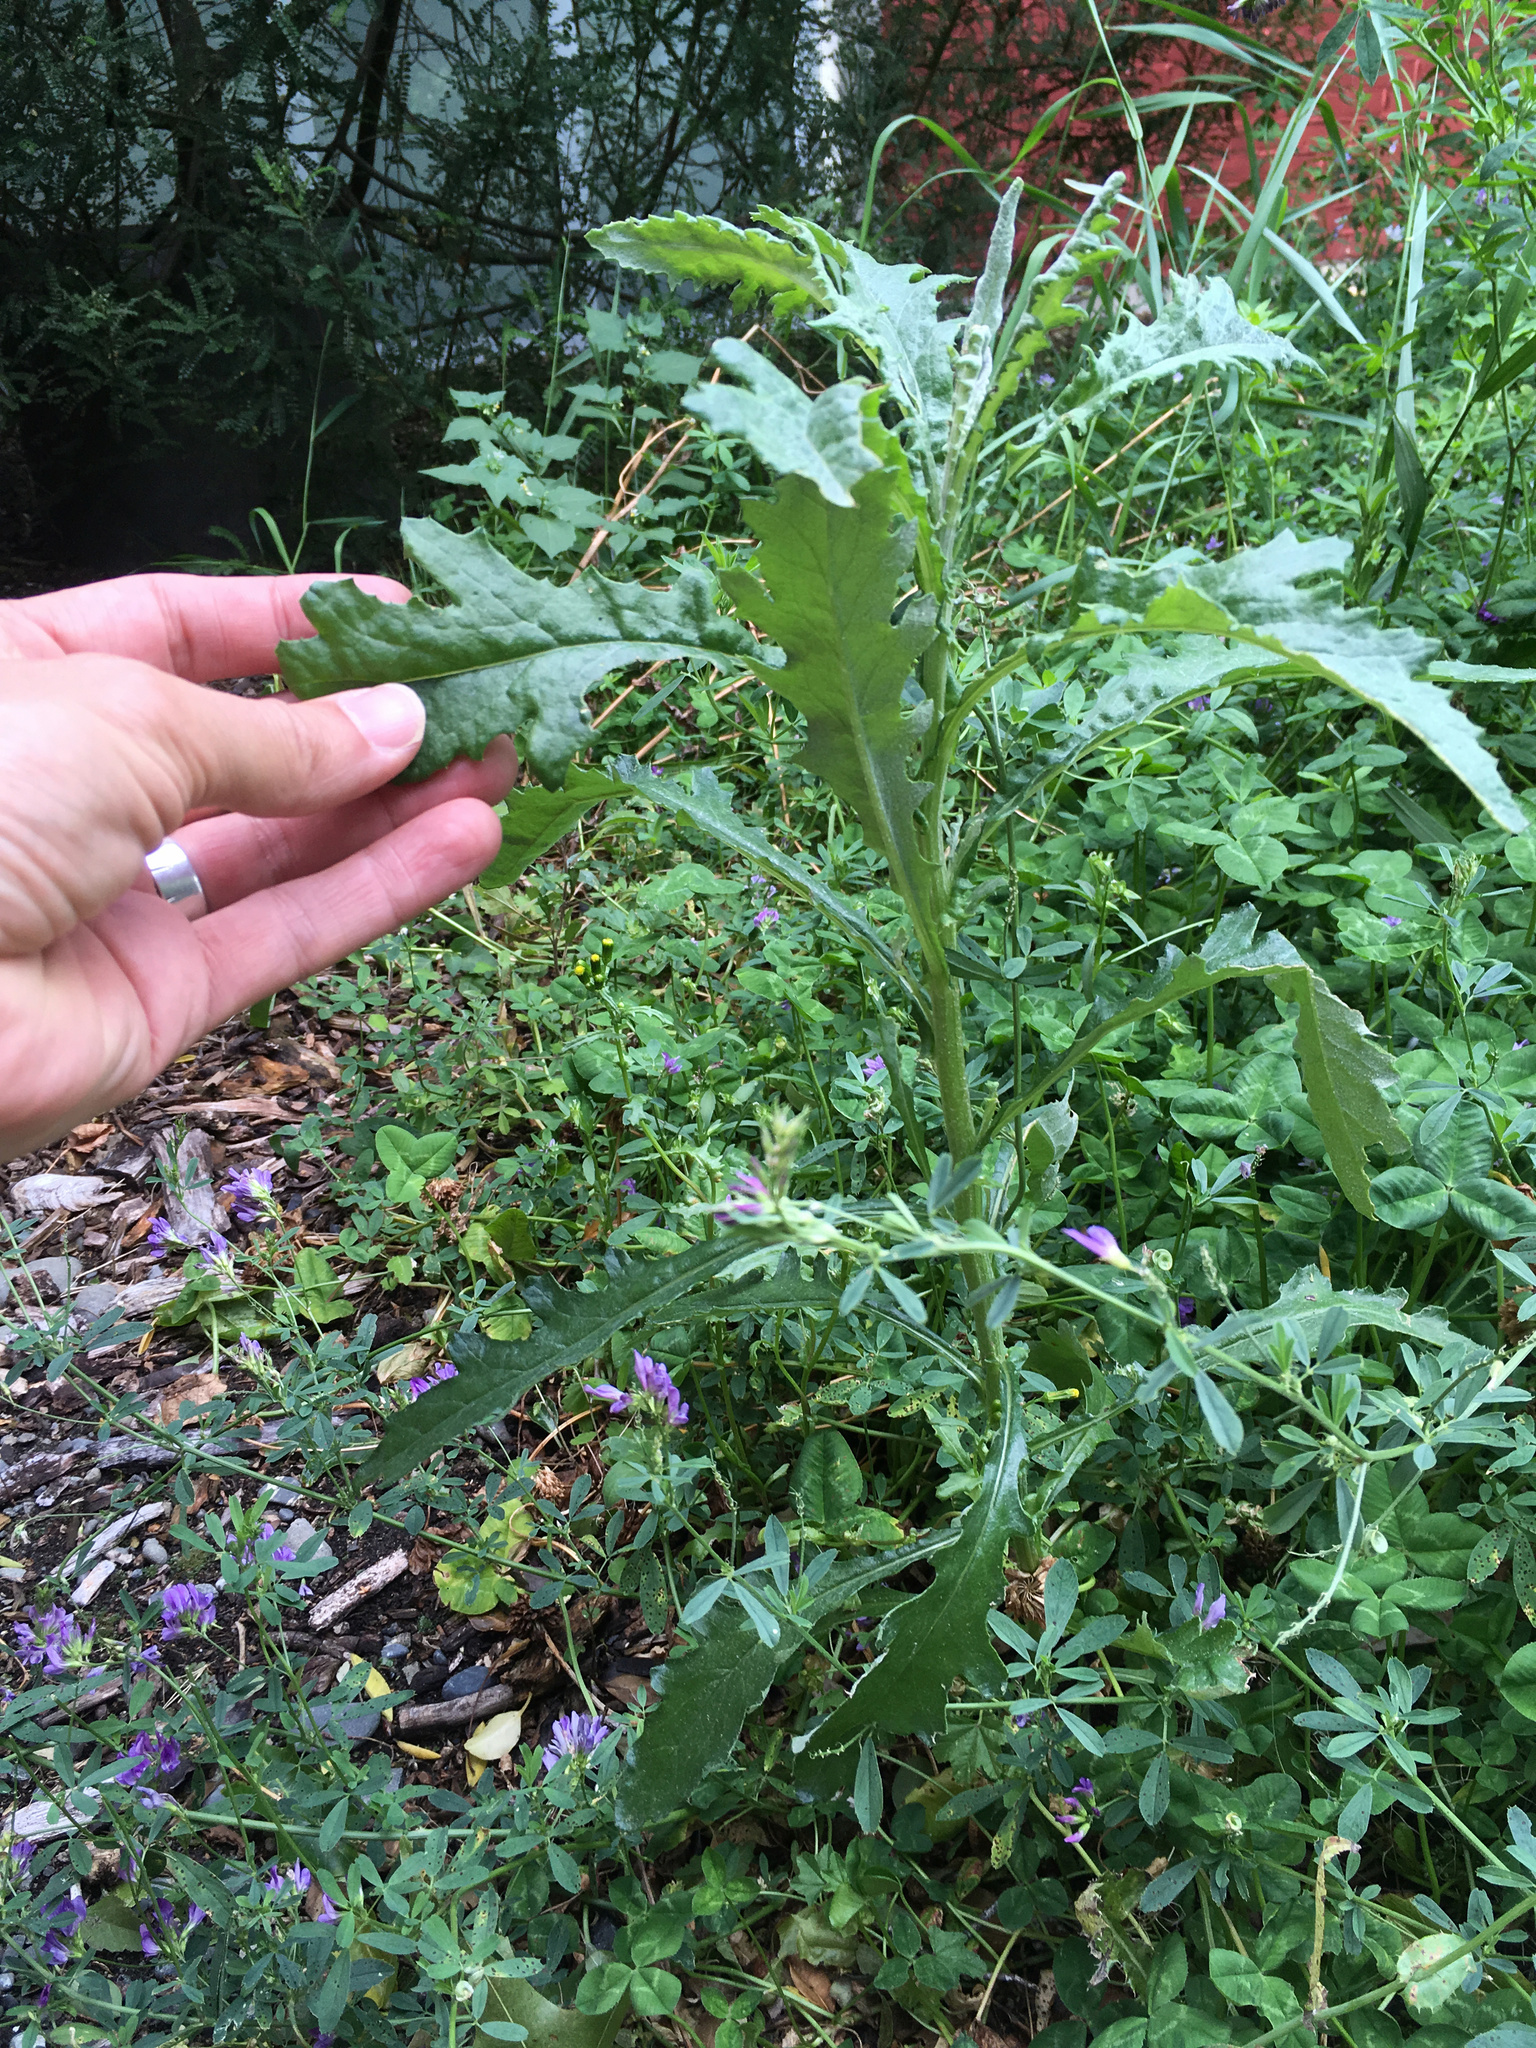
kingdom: Plantae
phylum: Tracheophyta
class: Magnoliopsida
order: Asterales
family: Asteraceae
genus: Senecio
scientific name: Senecio glomeratus
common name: Cutleaf burnweed
